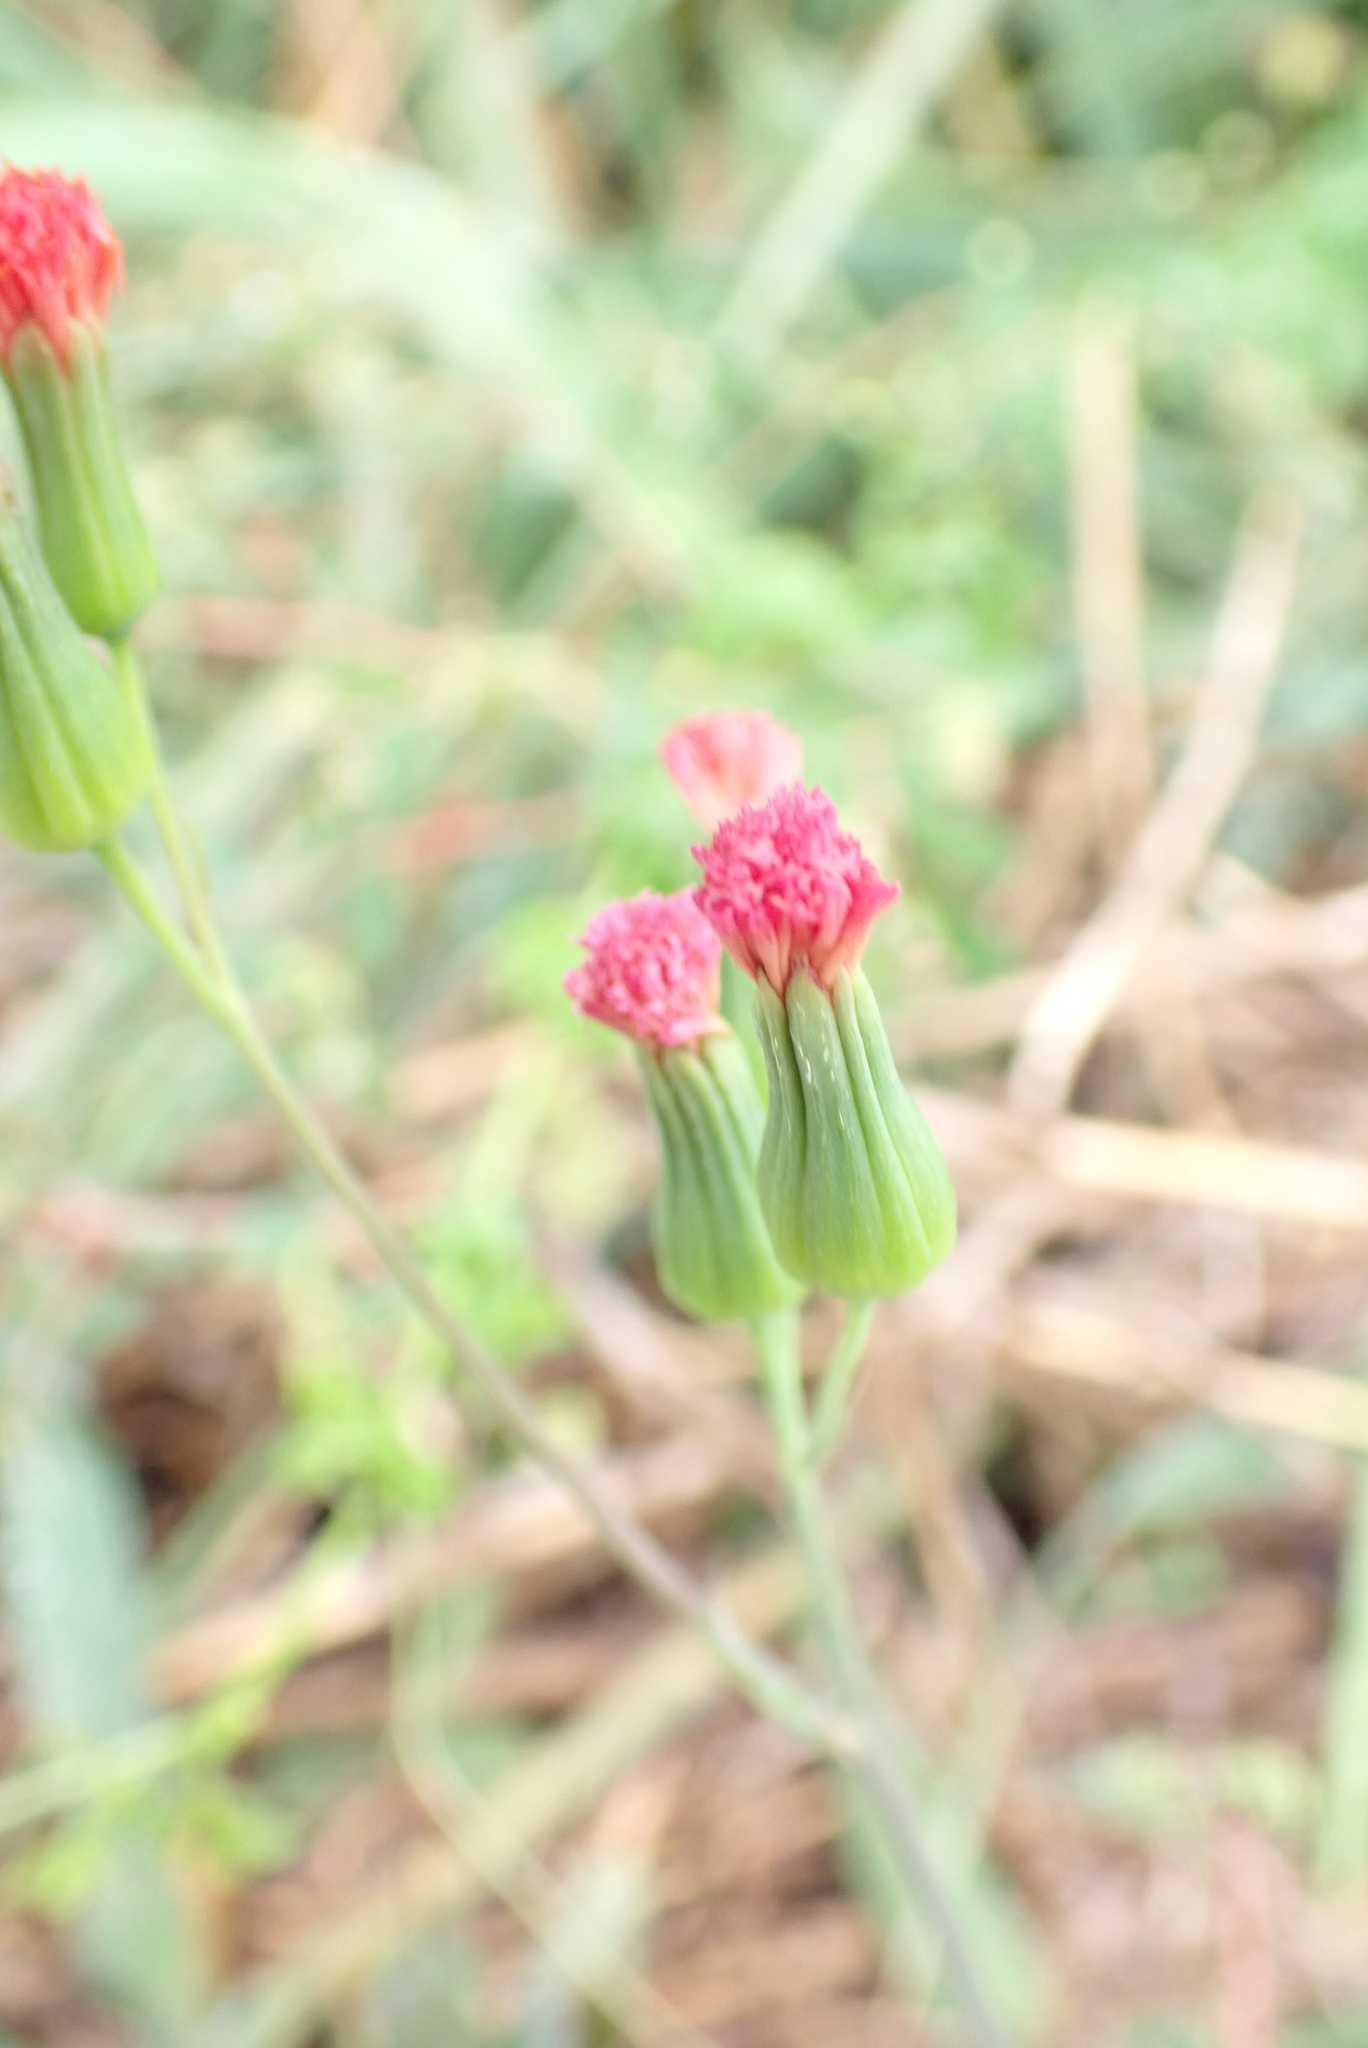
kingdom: Plantae
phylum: Tracheophyta
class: Magnoliopsida
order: Asterales
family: Asteraceae
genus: Emilia
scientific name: Emilia fosbergii
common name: Florida tasselflower
